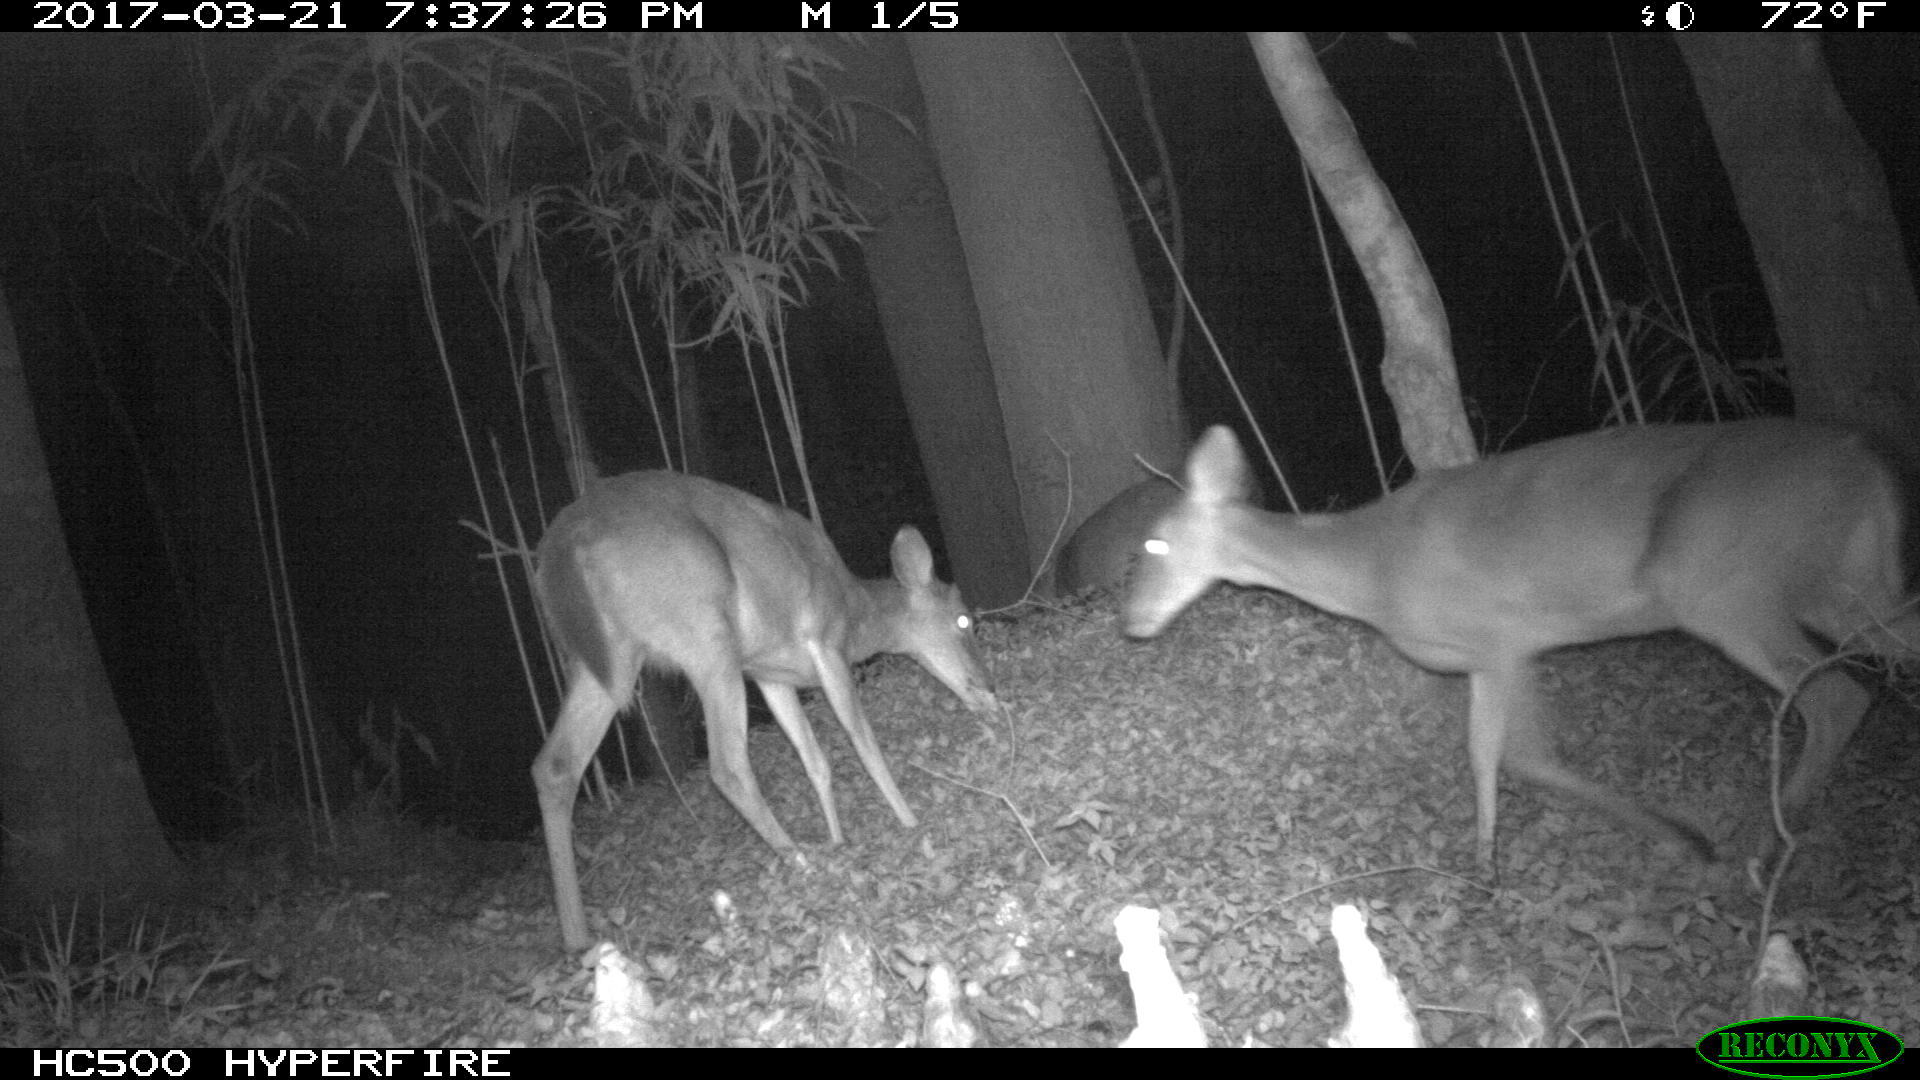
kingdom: Animalia
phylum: Chordata
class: Mammalia
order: Artiodactyla
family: Cervidae
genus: Odocoileus
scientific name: Odocoileus virginianus
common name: White-tailed deer
